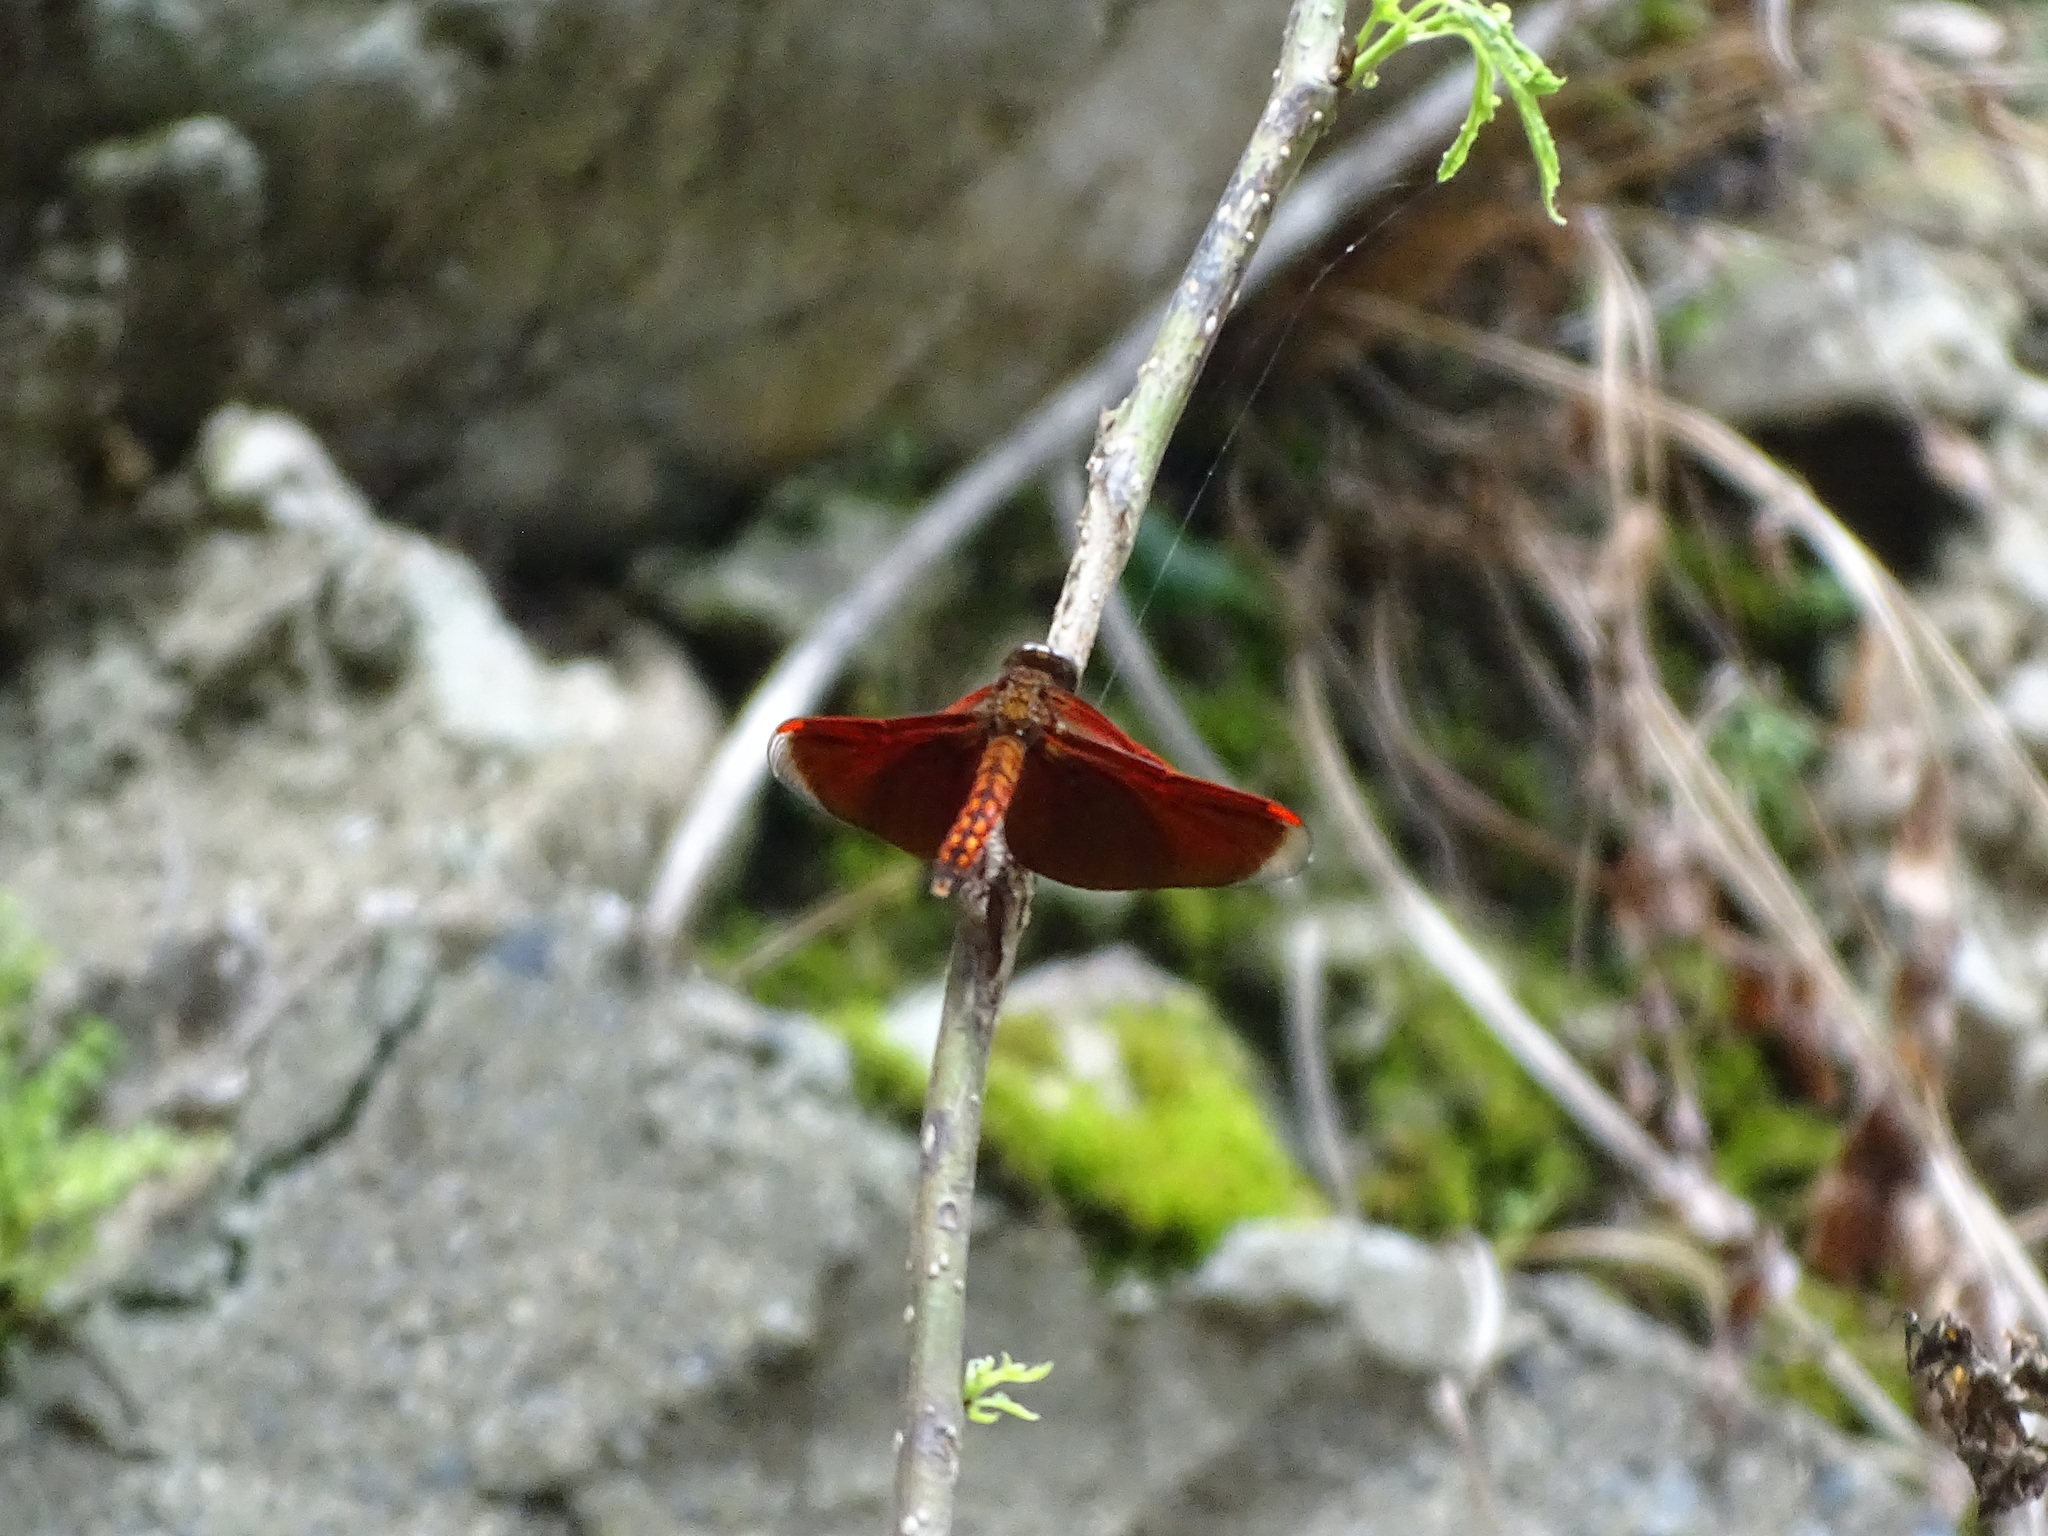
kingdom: Animalia
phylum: Arthropoda
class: Insecta
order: Odonata
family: Libellulidae
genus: Neurothemis
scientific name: Neurothemis taiwanensis
